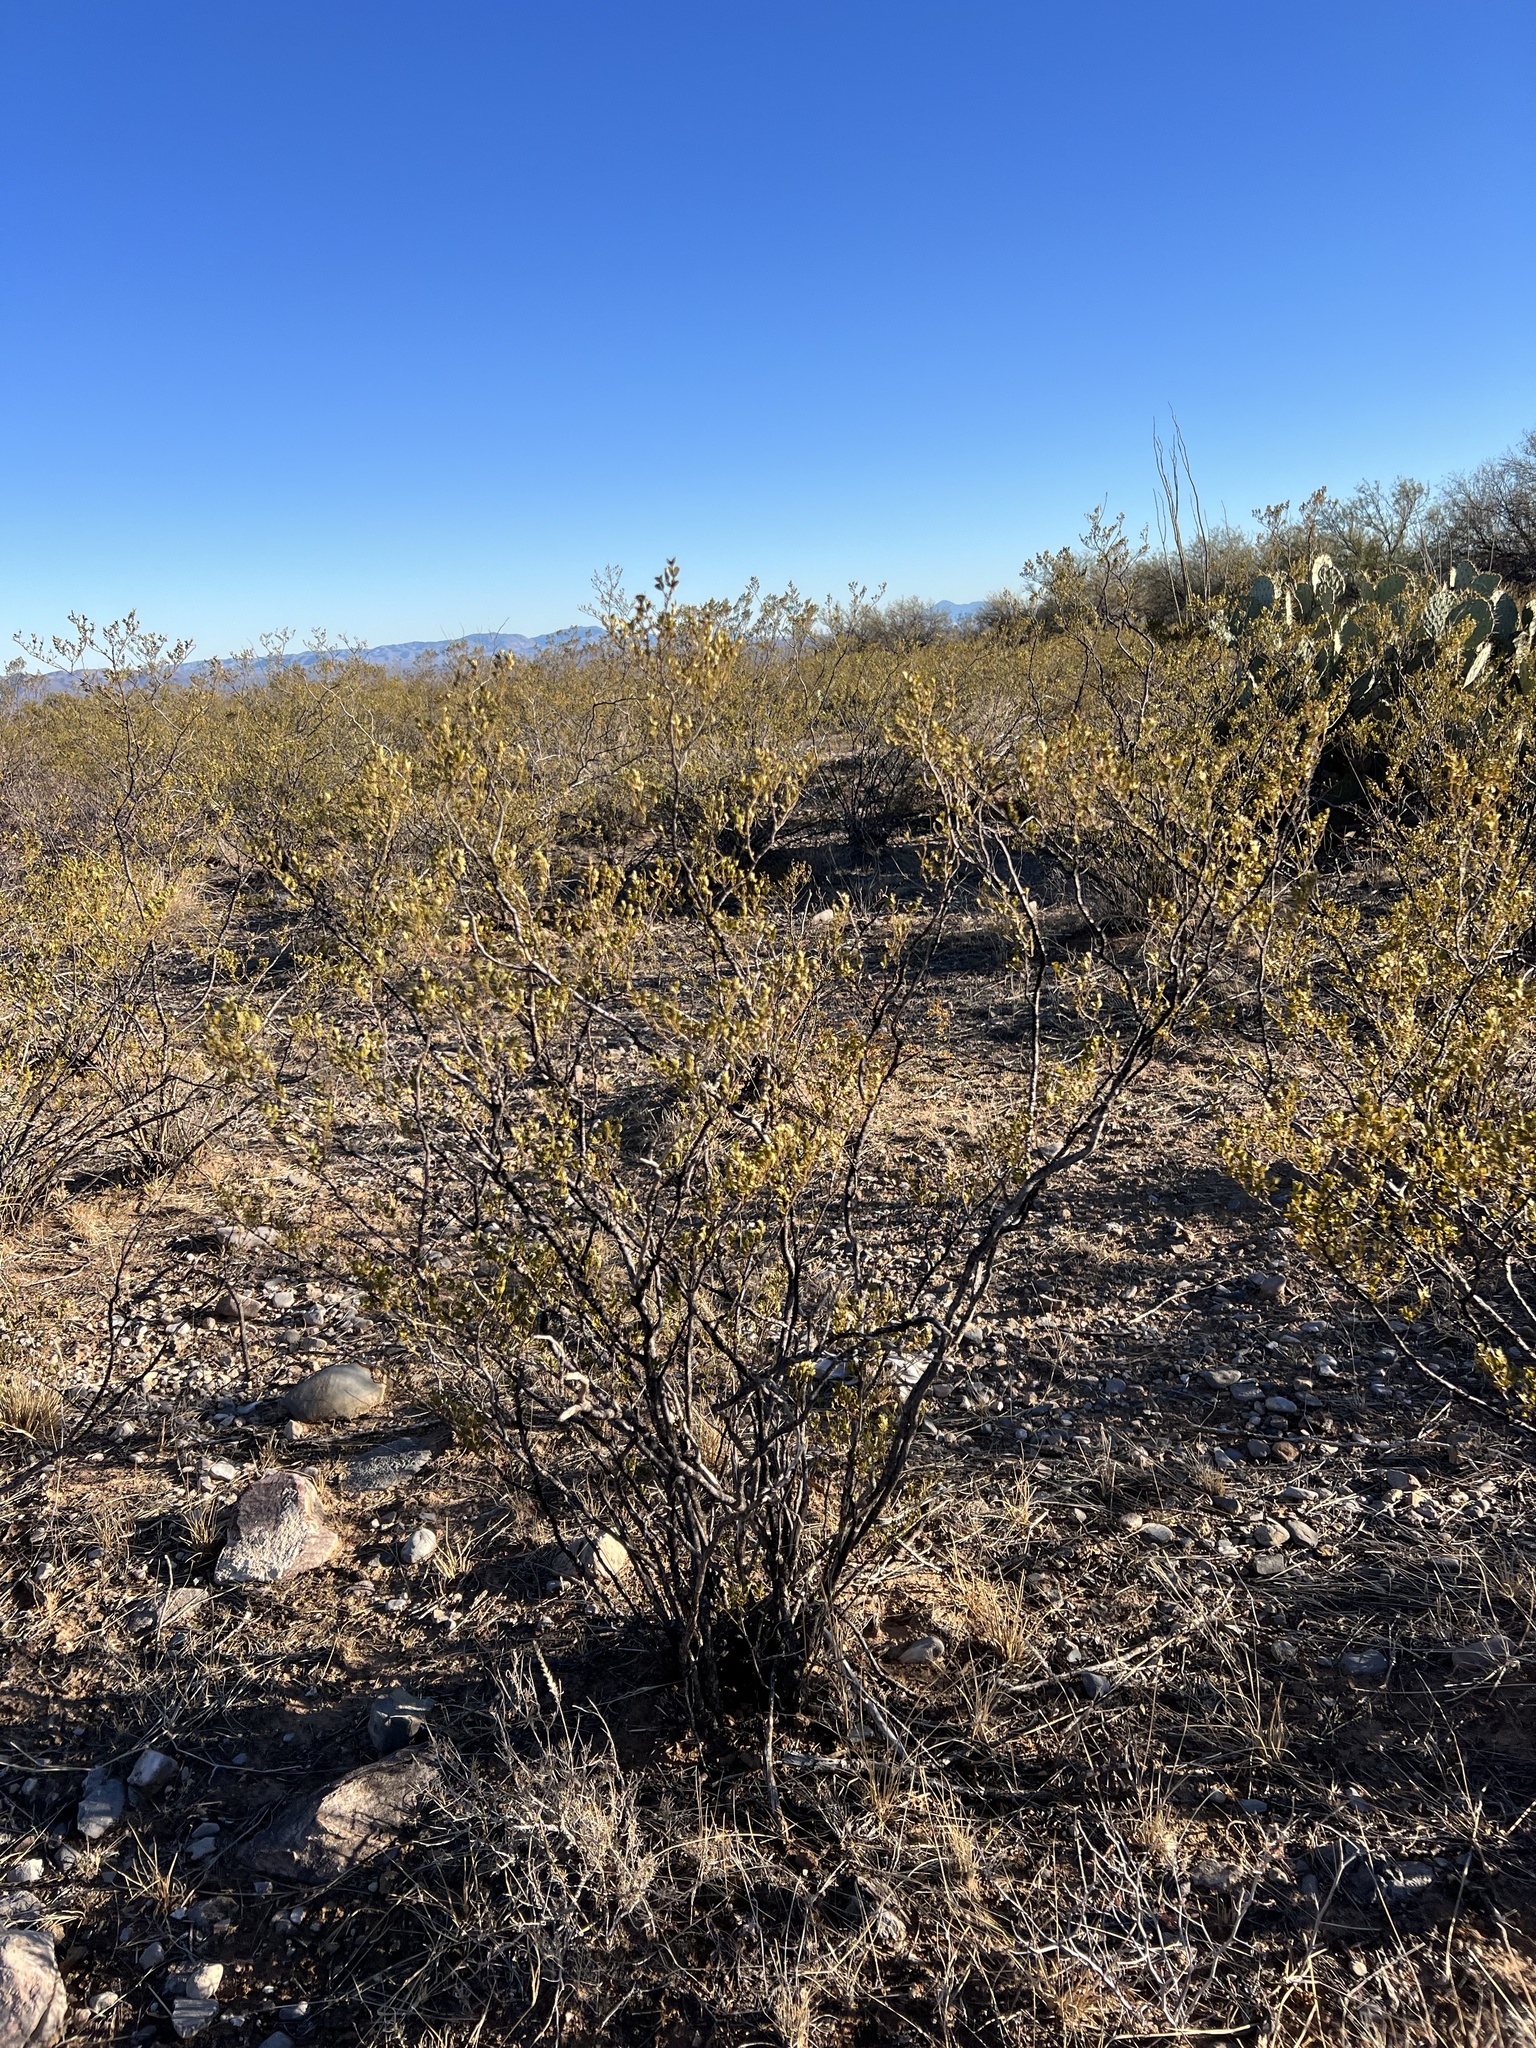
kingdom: Plantae
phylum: Tracheophyta
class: Magnoliopsida
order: Zygophyllales
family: Zygophyllaceae
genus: Larrea
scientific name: Larrea tridentata
